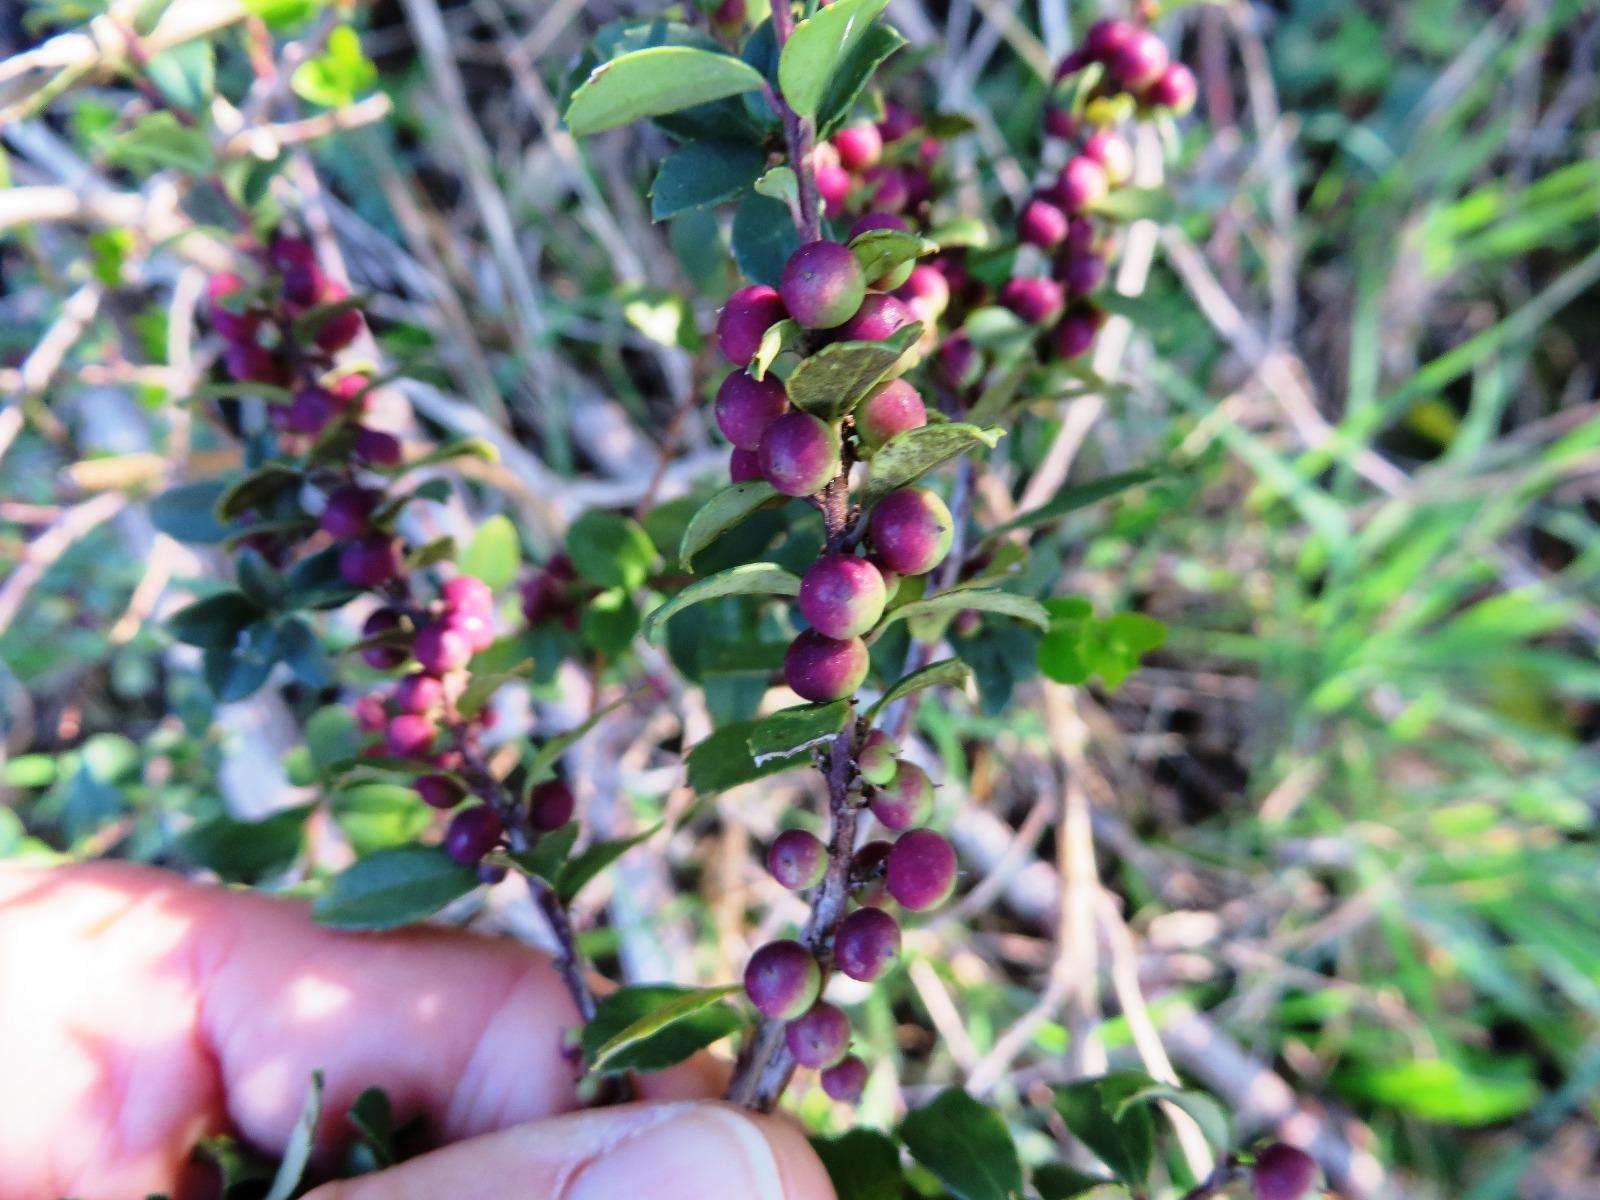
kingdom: Plantae
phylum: Tracheophyta
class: Magnoliopsida
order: Ericales
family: Primulaceae
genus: Myrsine
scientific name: Myrsine africana
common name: African-boxwood
